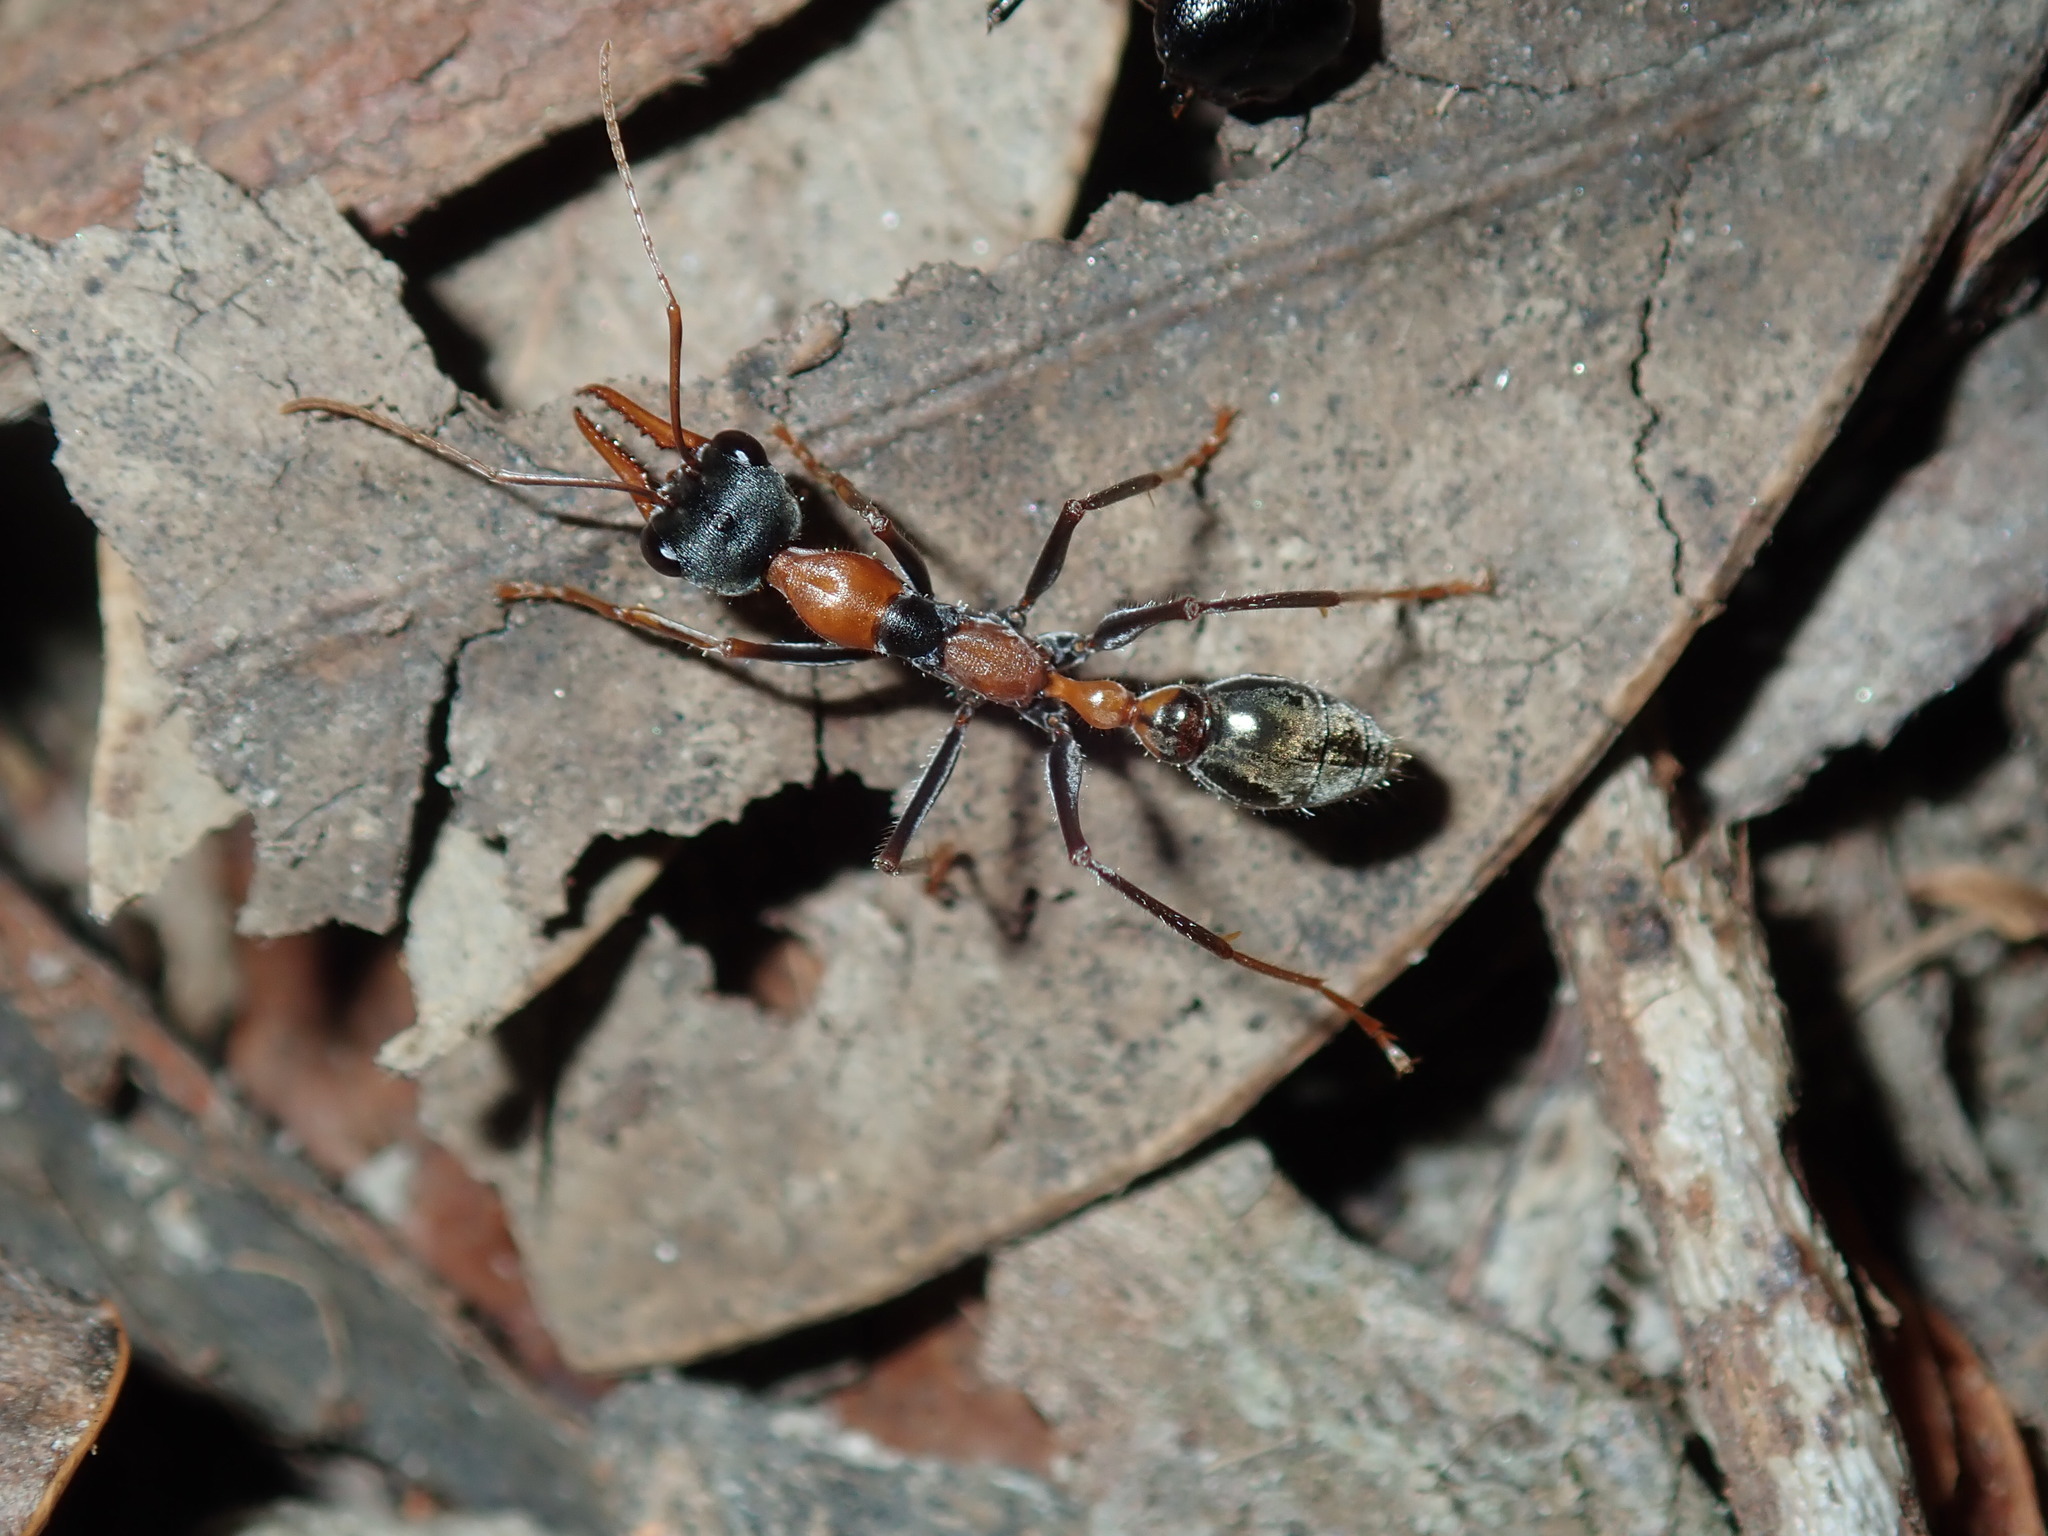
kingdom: Animalia
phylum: Arthropoda
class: Insecta
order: Hymenoptera
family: Formicidae
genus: Myrmecia
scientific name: Myrmecia nigrocincta
